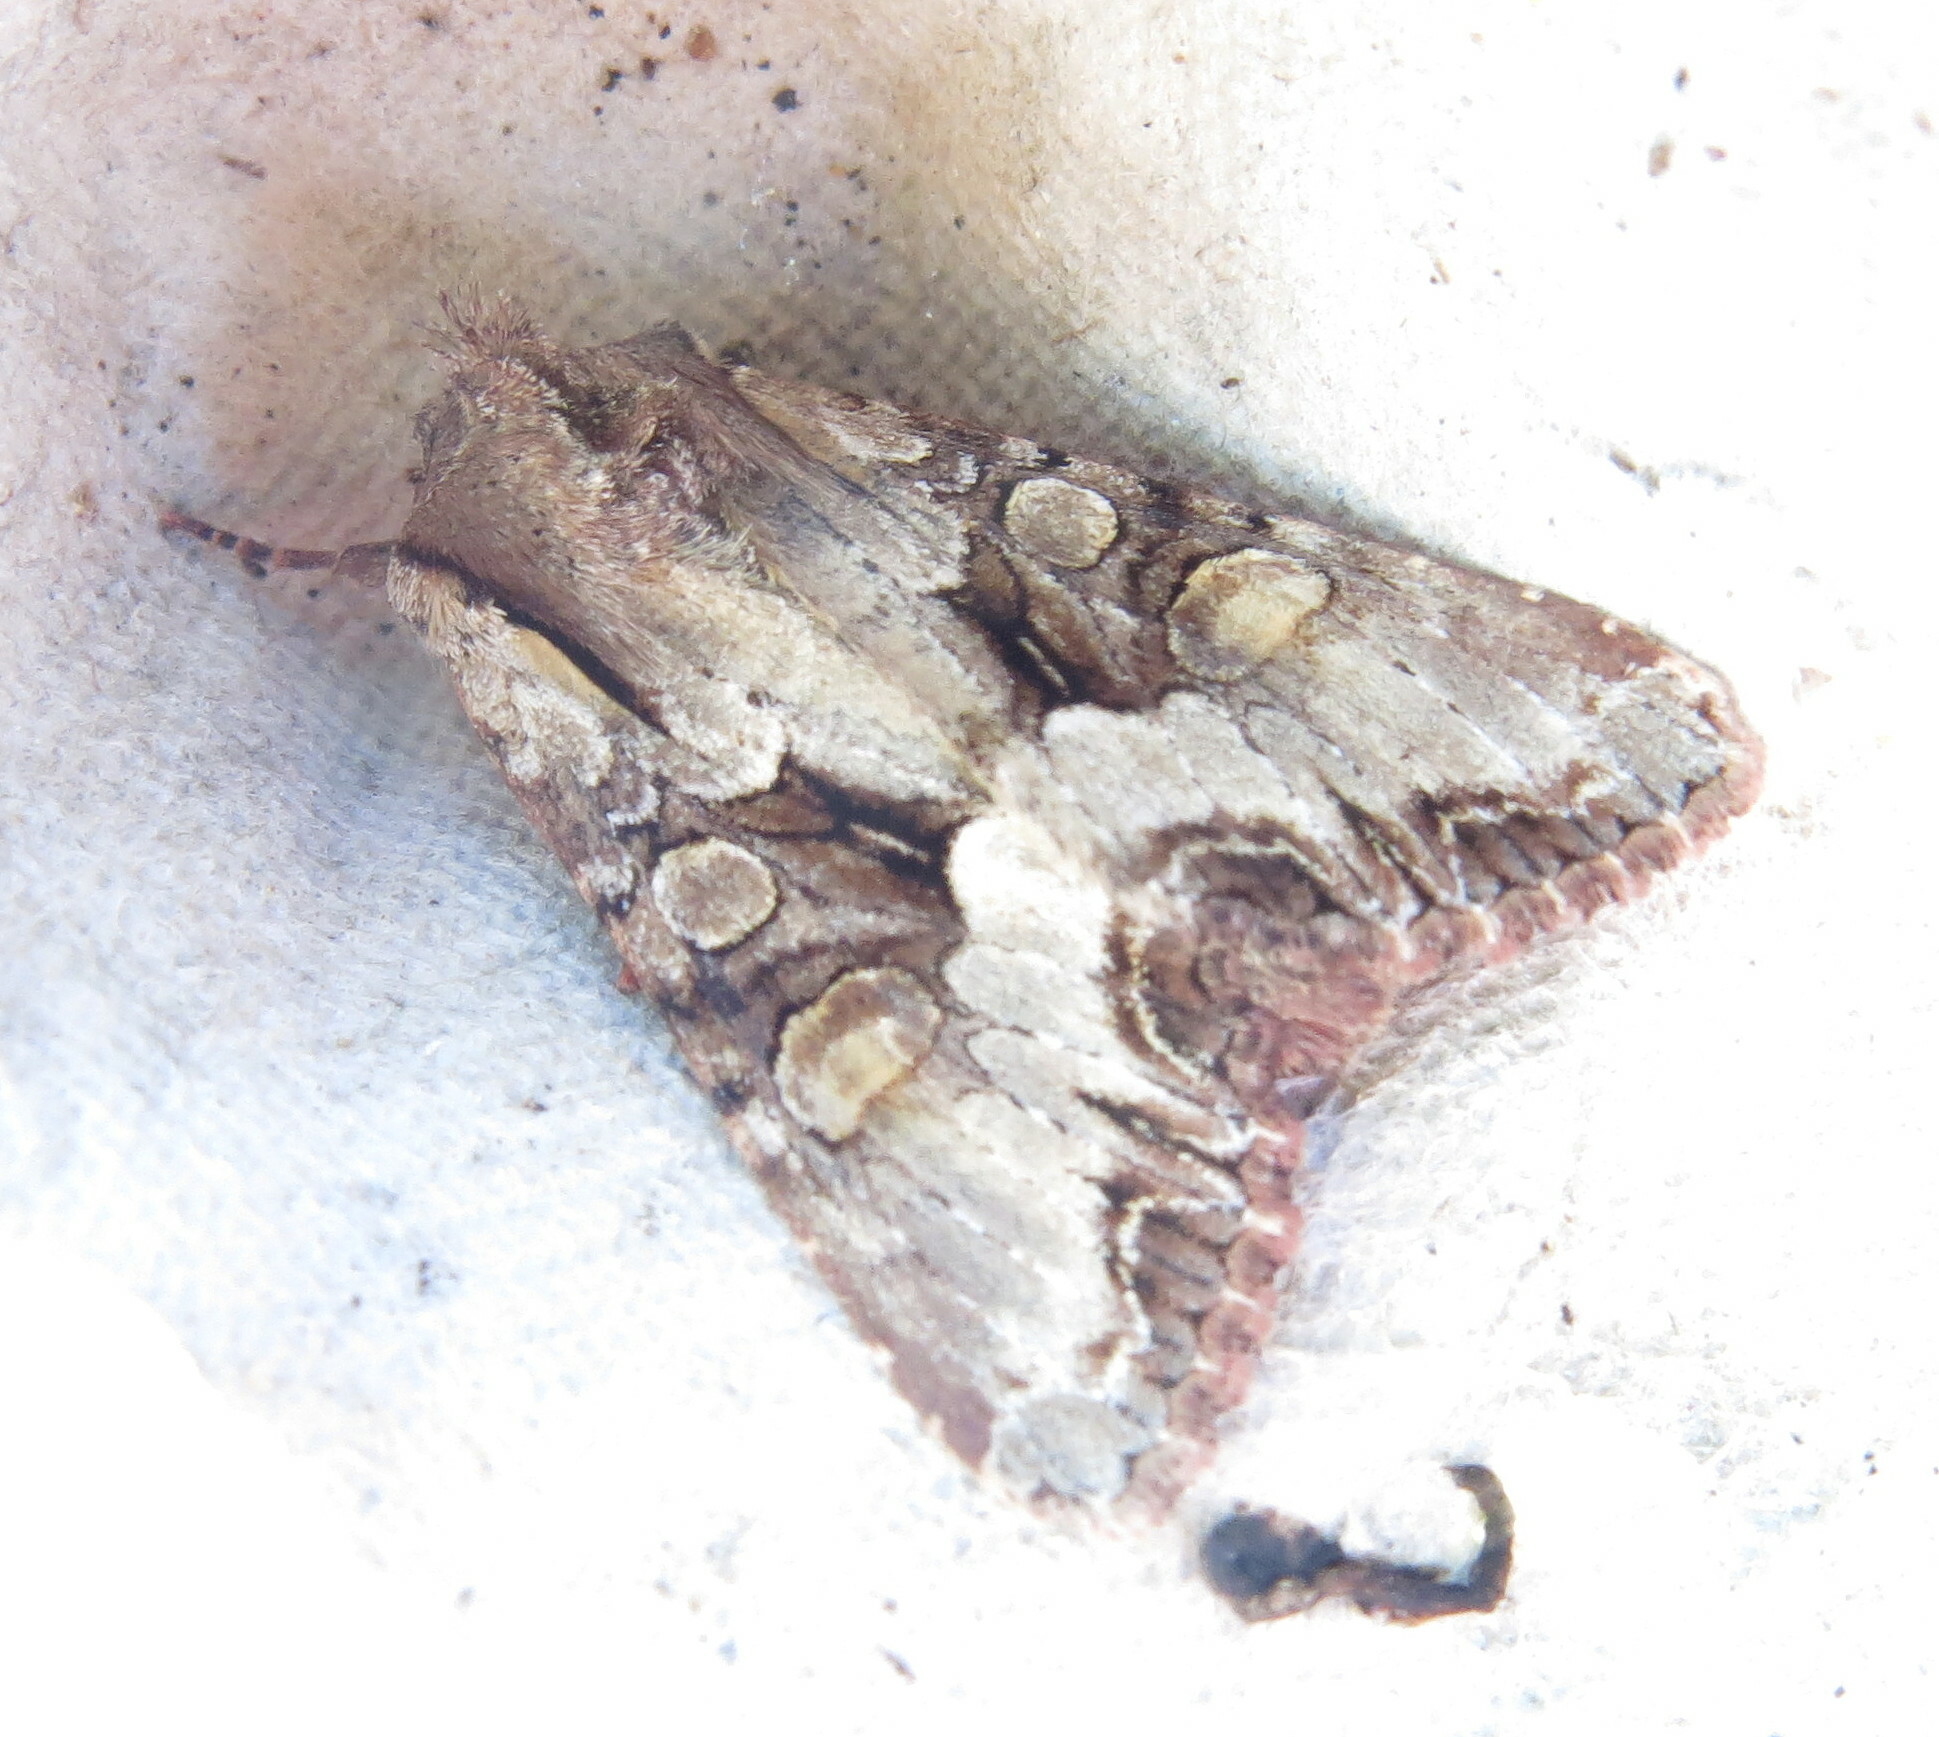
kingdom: Animalia
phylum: Arthropoda
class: Insecta
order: Lepidoptera
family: Noctuidae
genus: Lacanobia
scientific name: Lacanobia w-latinum
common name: Light brocade
